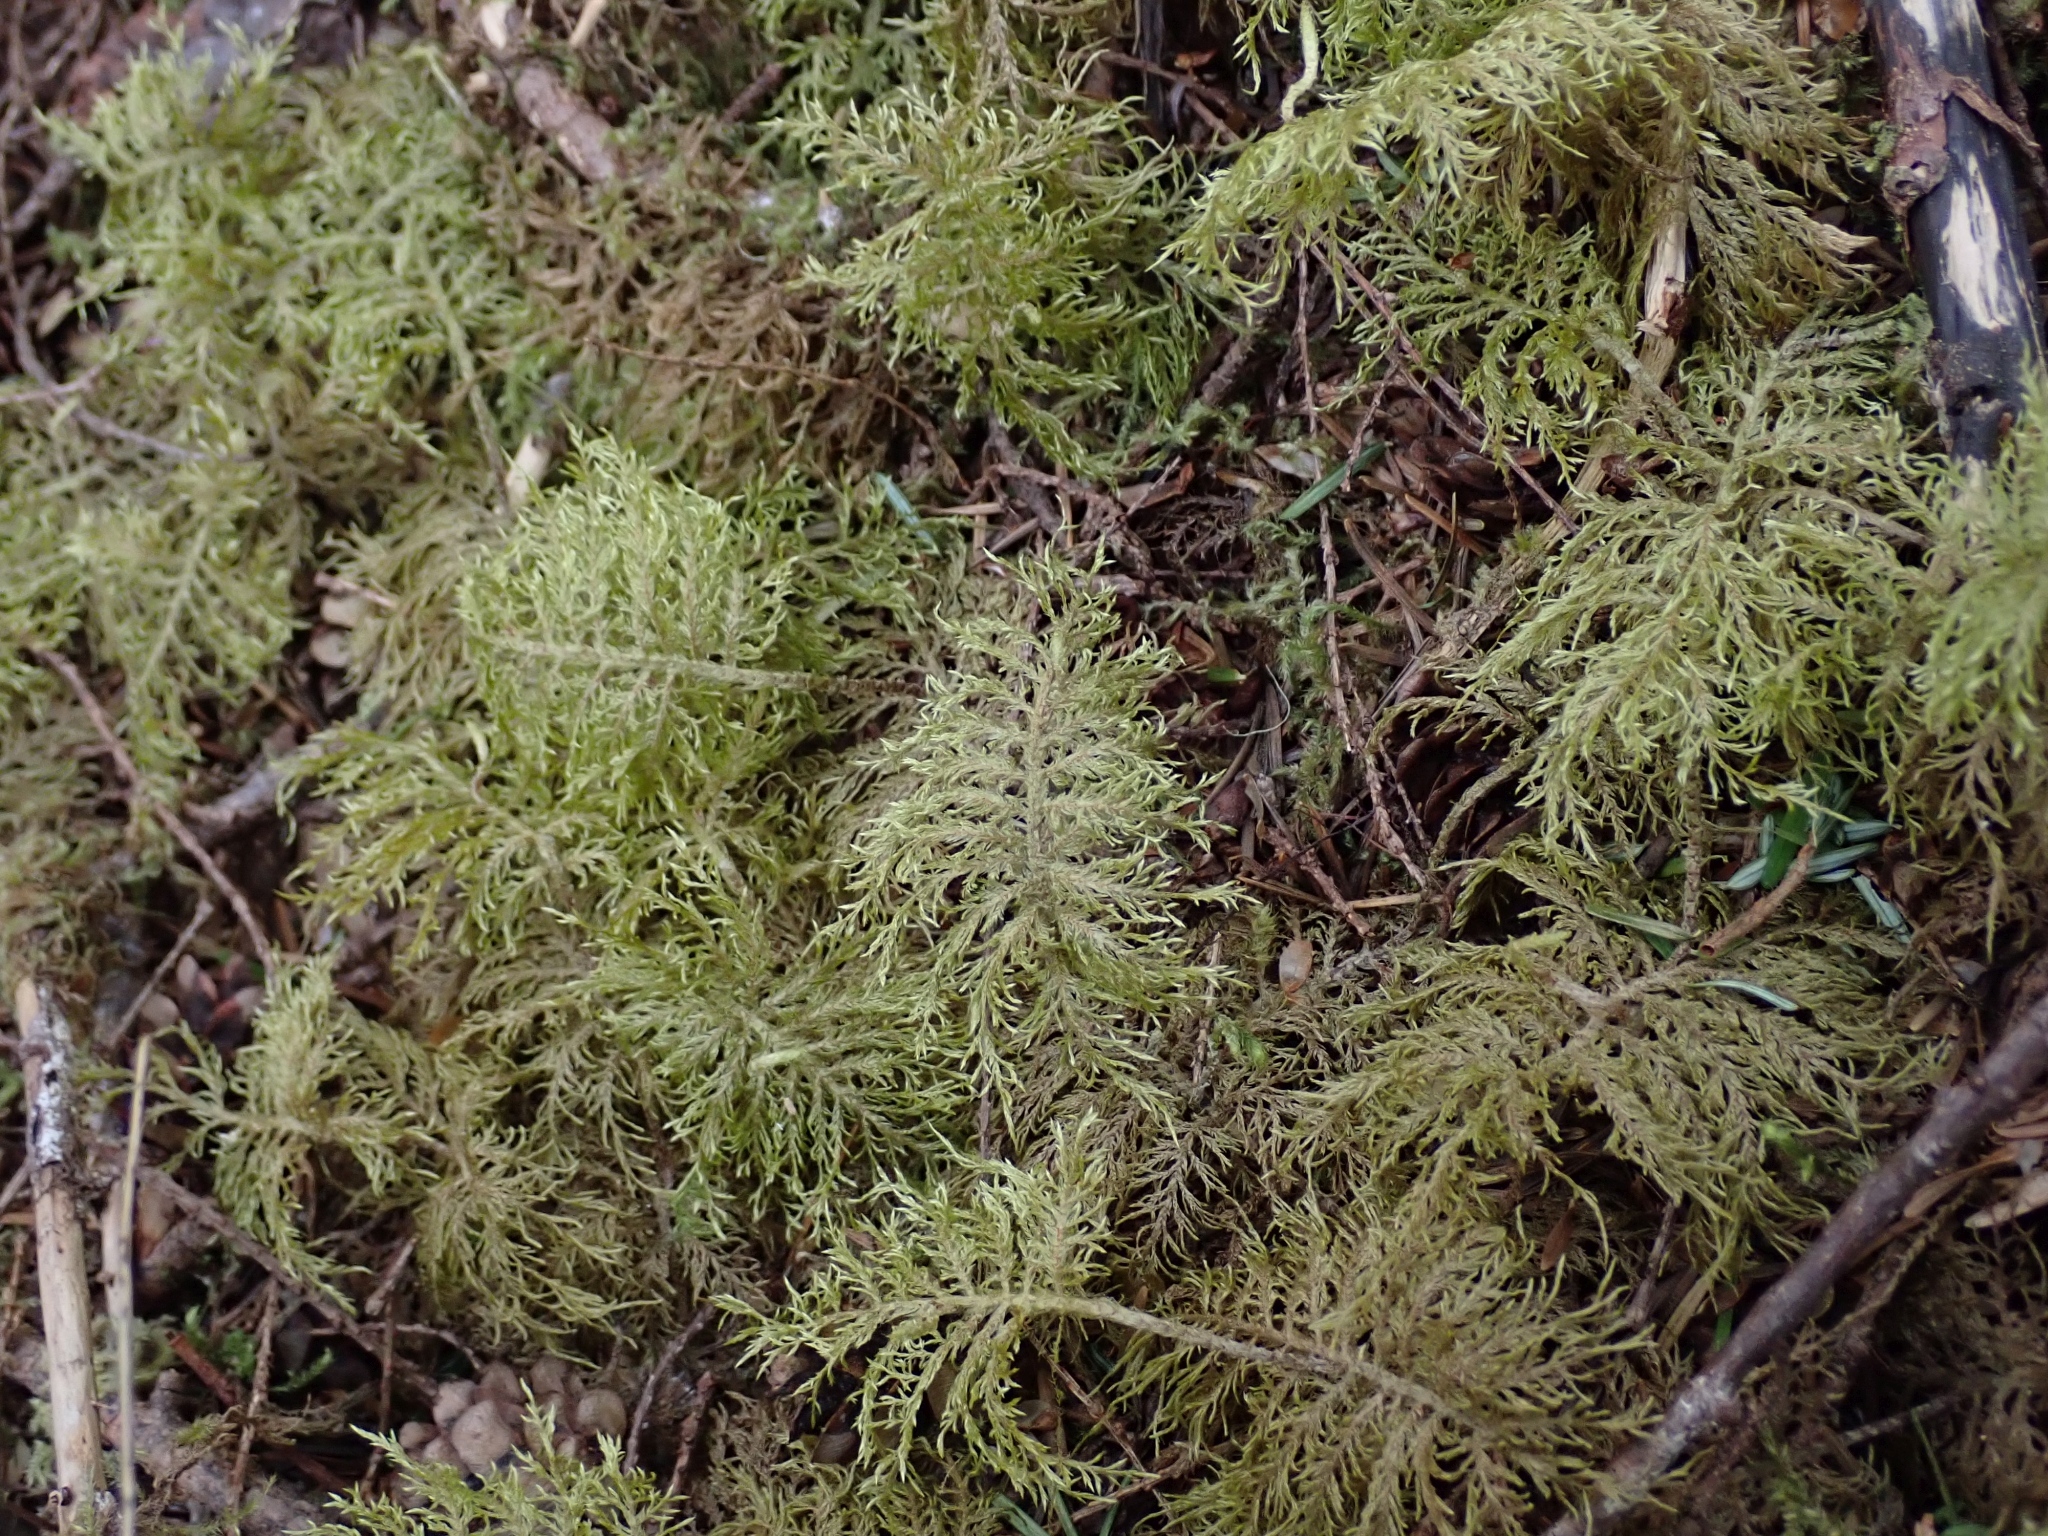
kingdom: Plantae
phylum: Bryophyta
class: Bryopsida
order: Hypnales
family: Hylocomiaceae
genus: Hylocomium
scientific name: Hylocomium splendens
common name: Stairstep moss
